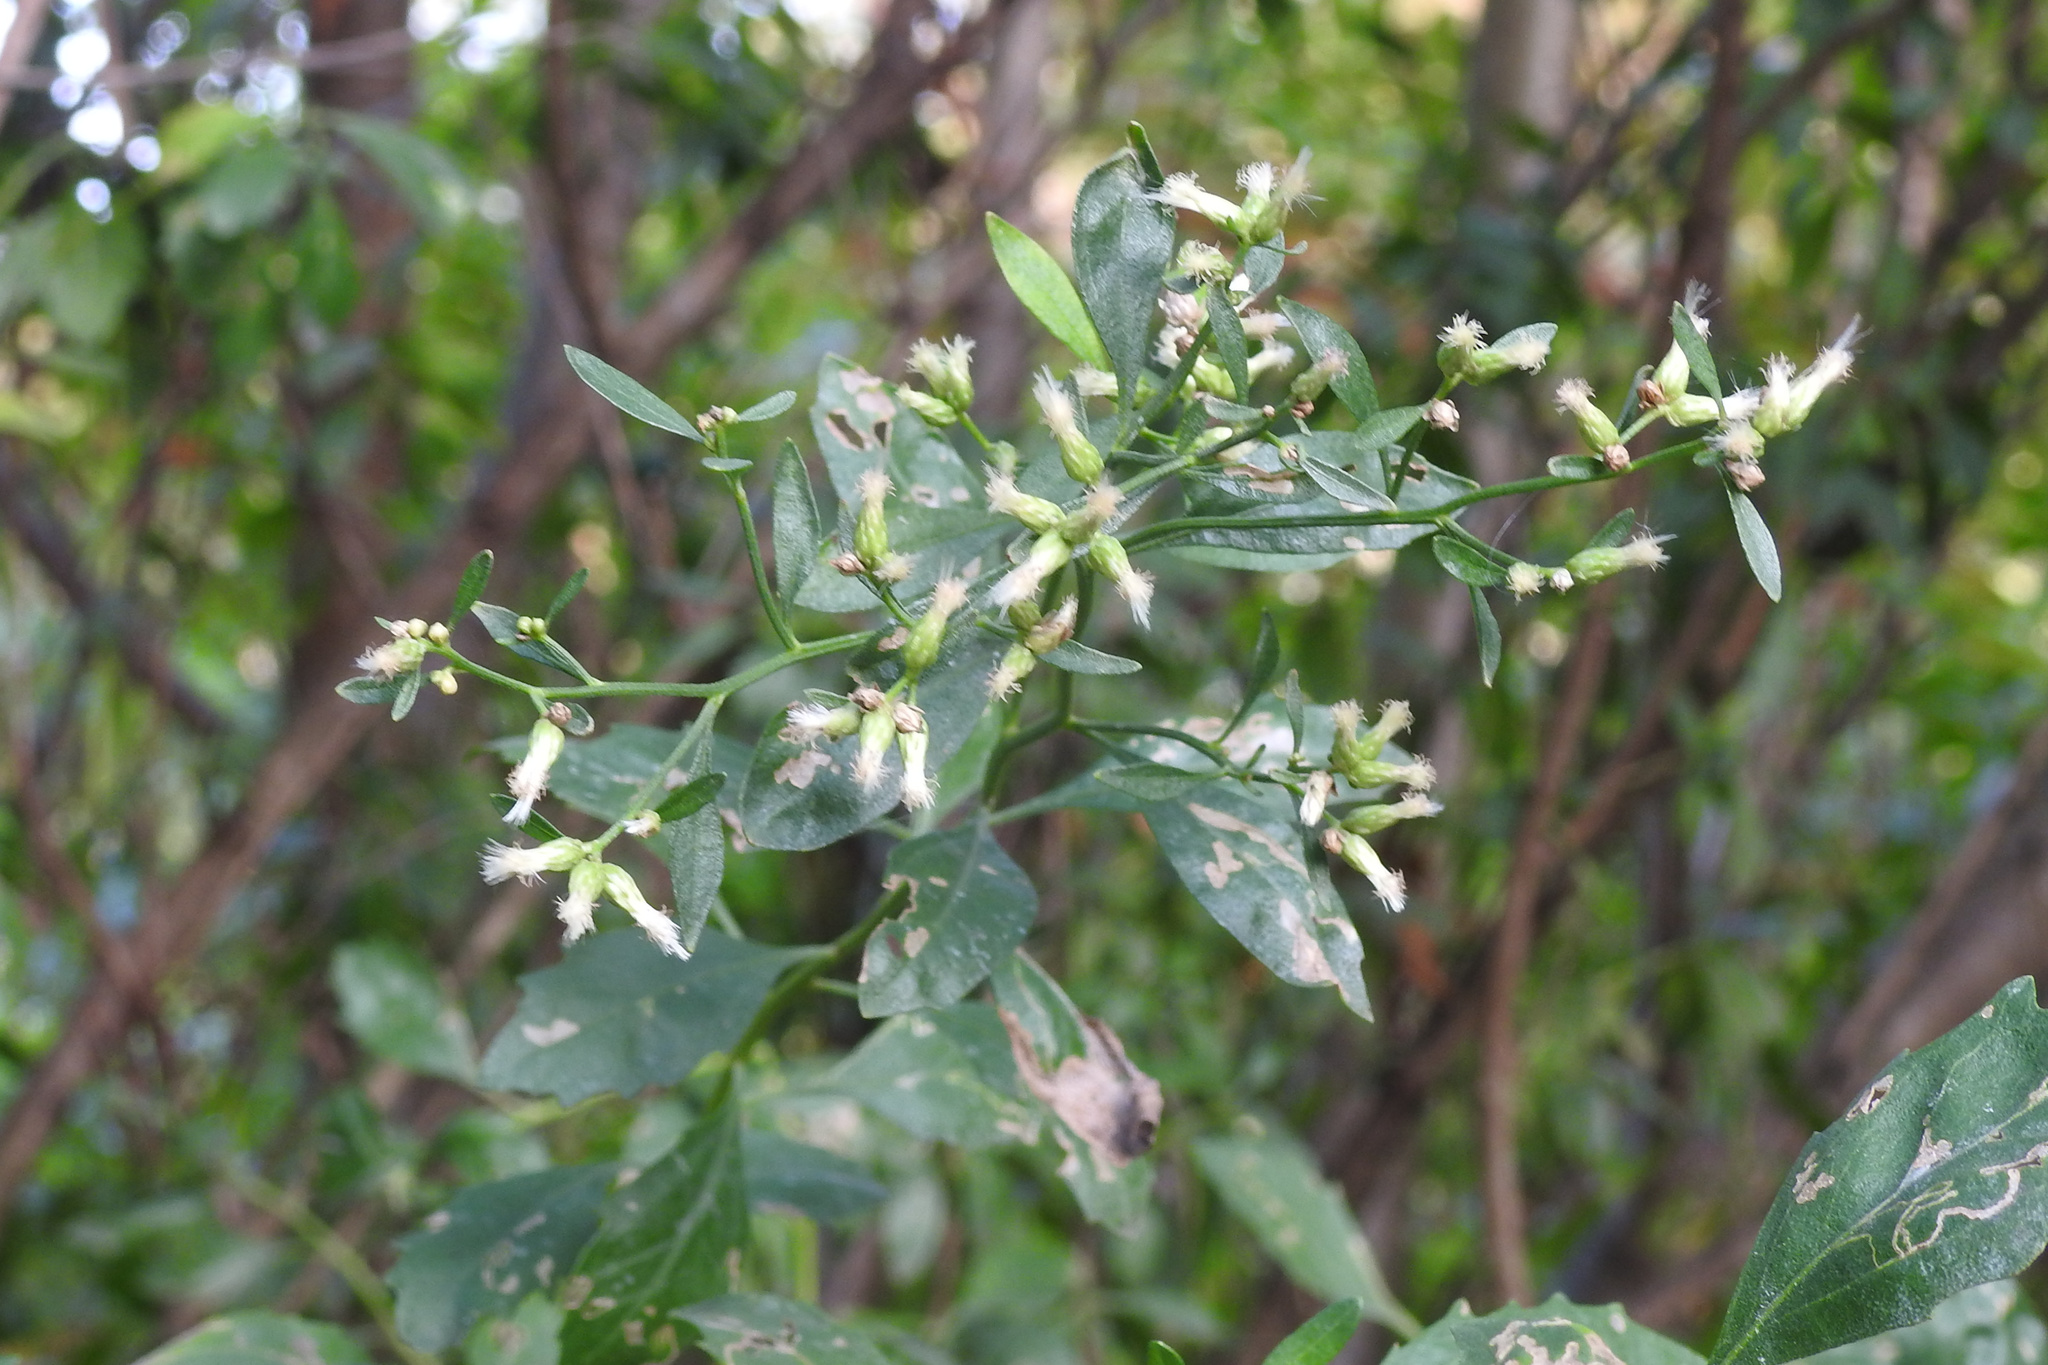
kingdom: Plantae
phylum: Tracheophyta
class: Magnoliopsida
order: Asterales
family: Asteraceae
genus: Baccharis
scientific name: Baccharis halimifolia
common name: Eastern baccharis
